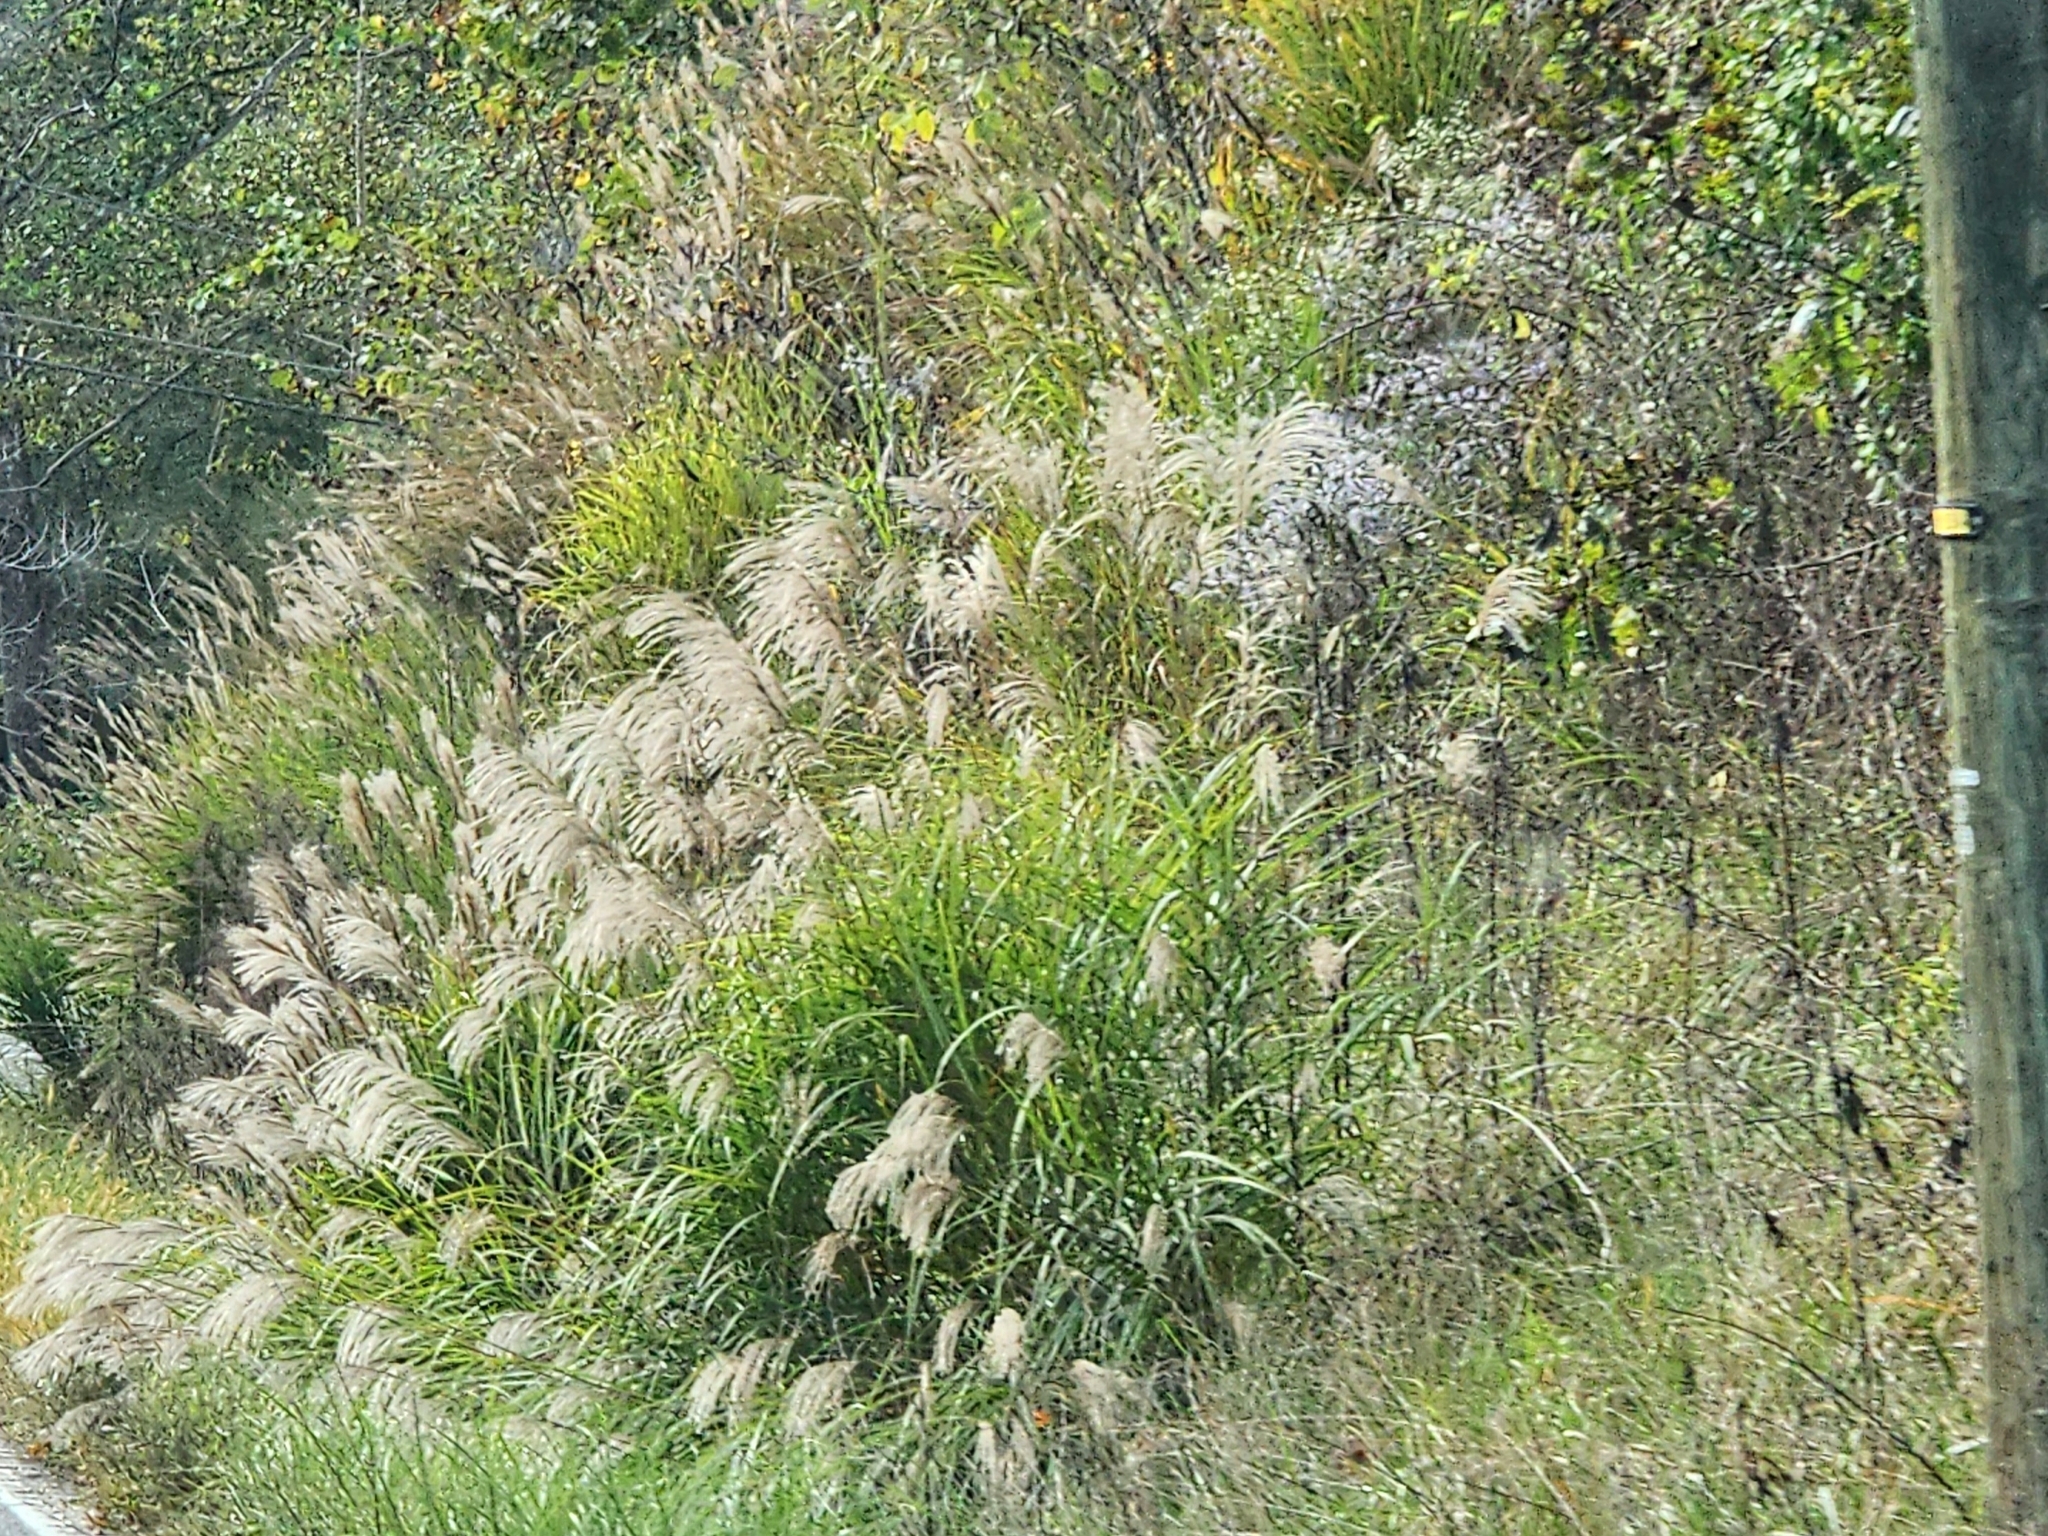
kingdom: Plantae
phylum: Tracheophyta
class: Liliopsida
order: Poales
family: Poaceae
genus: Miscanthus
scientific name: Miscanthus sinensis
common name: Chinese silvergrass
